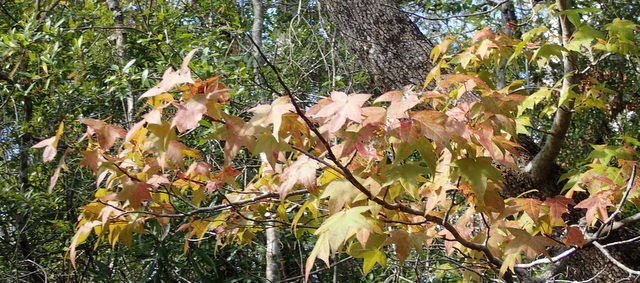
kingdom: Plantae
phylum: Tracheophyta
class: Magnoliopsida
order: Saxifragales
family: Altingiaceae
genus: Liquidambar
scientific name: Liquidambar styraciflua
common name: Sweet gum
